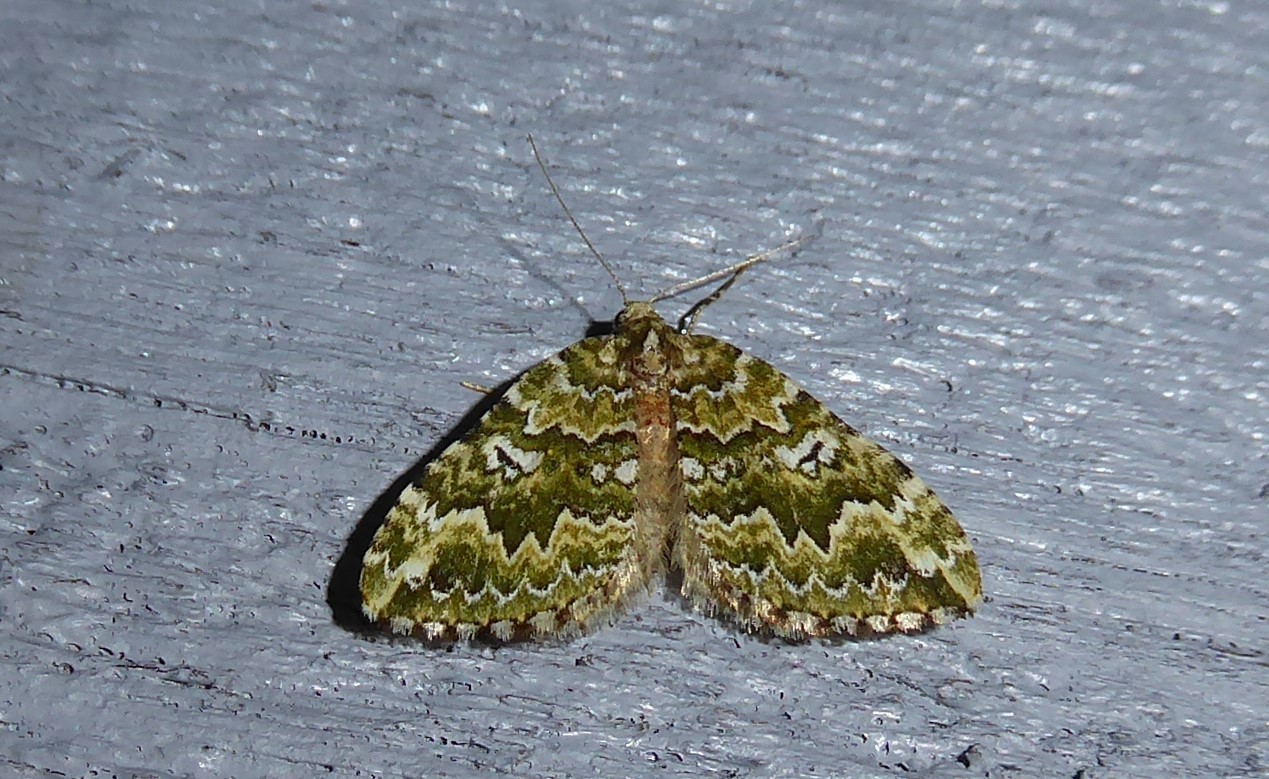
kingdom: Animalia
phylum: Arthropoda
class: Insecta
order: Lepidoptera
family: Geometridae
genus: Asaphodes
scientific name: Asaphodes beata
